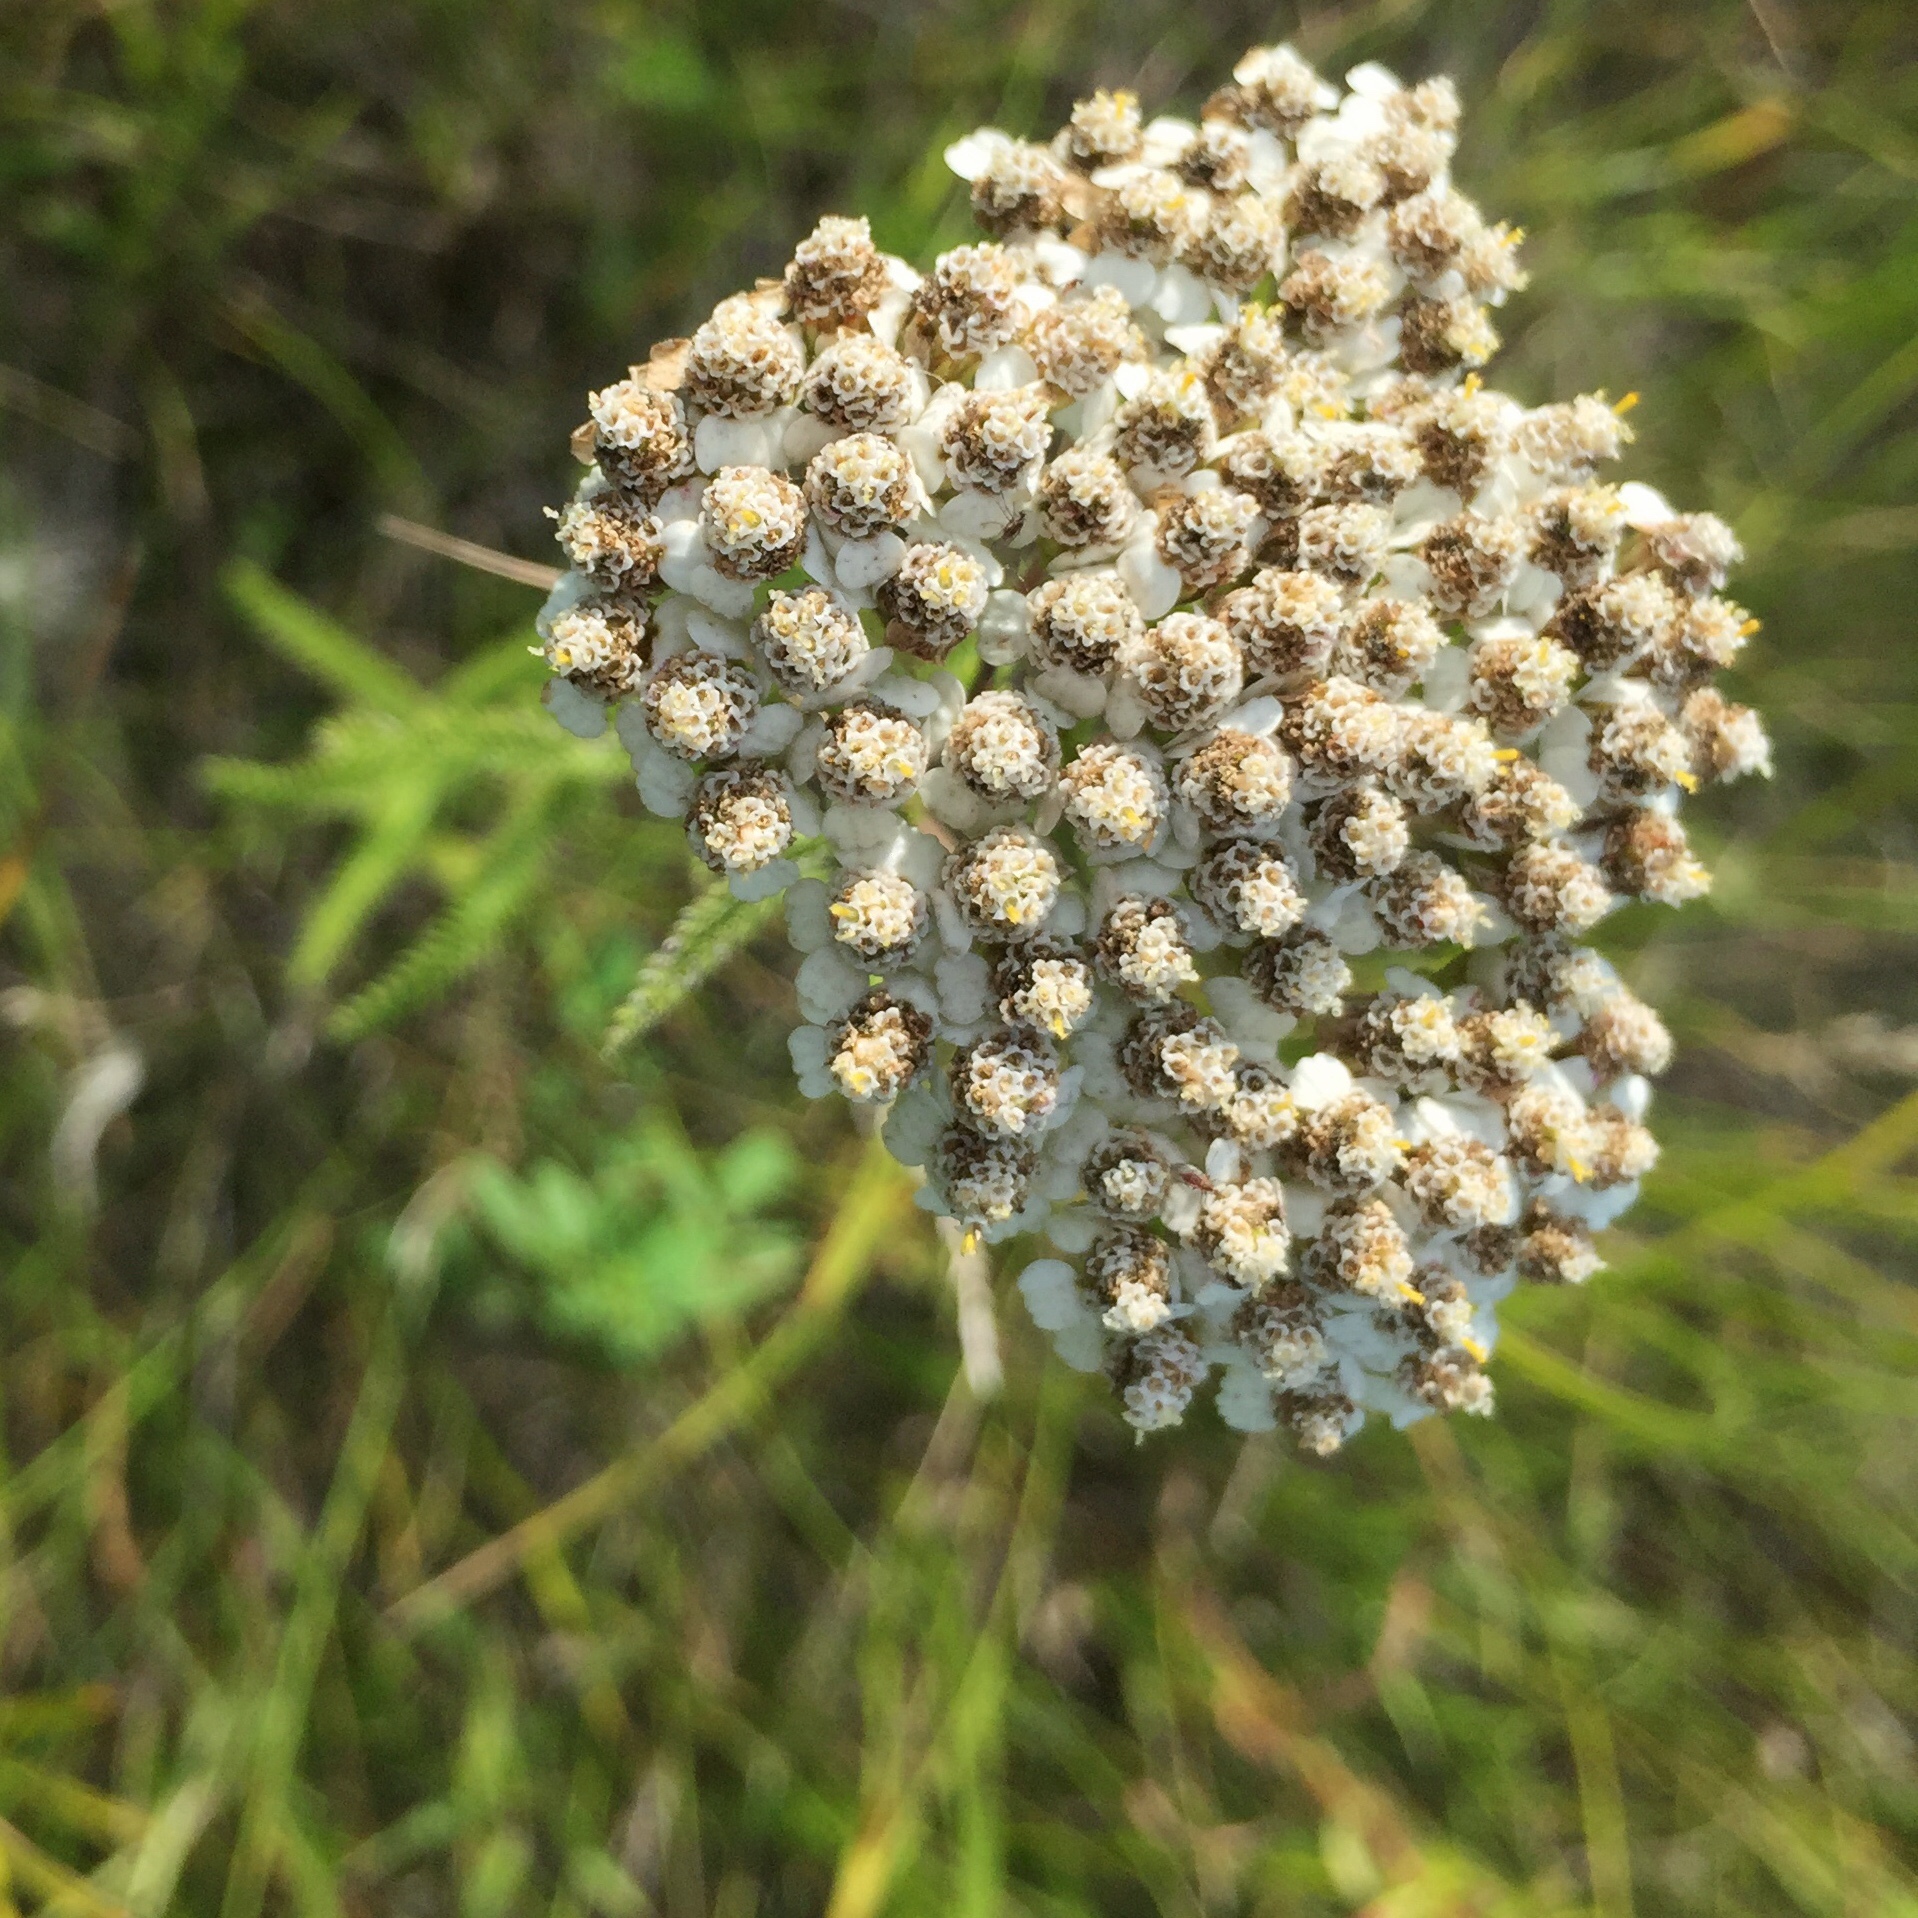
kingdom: Plantae
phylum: Tracheophyta
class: Magnoliopsida
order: Asterales
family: Asteraceae
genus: Achillea
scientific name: Achillea millefolium
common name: Yarrow
